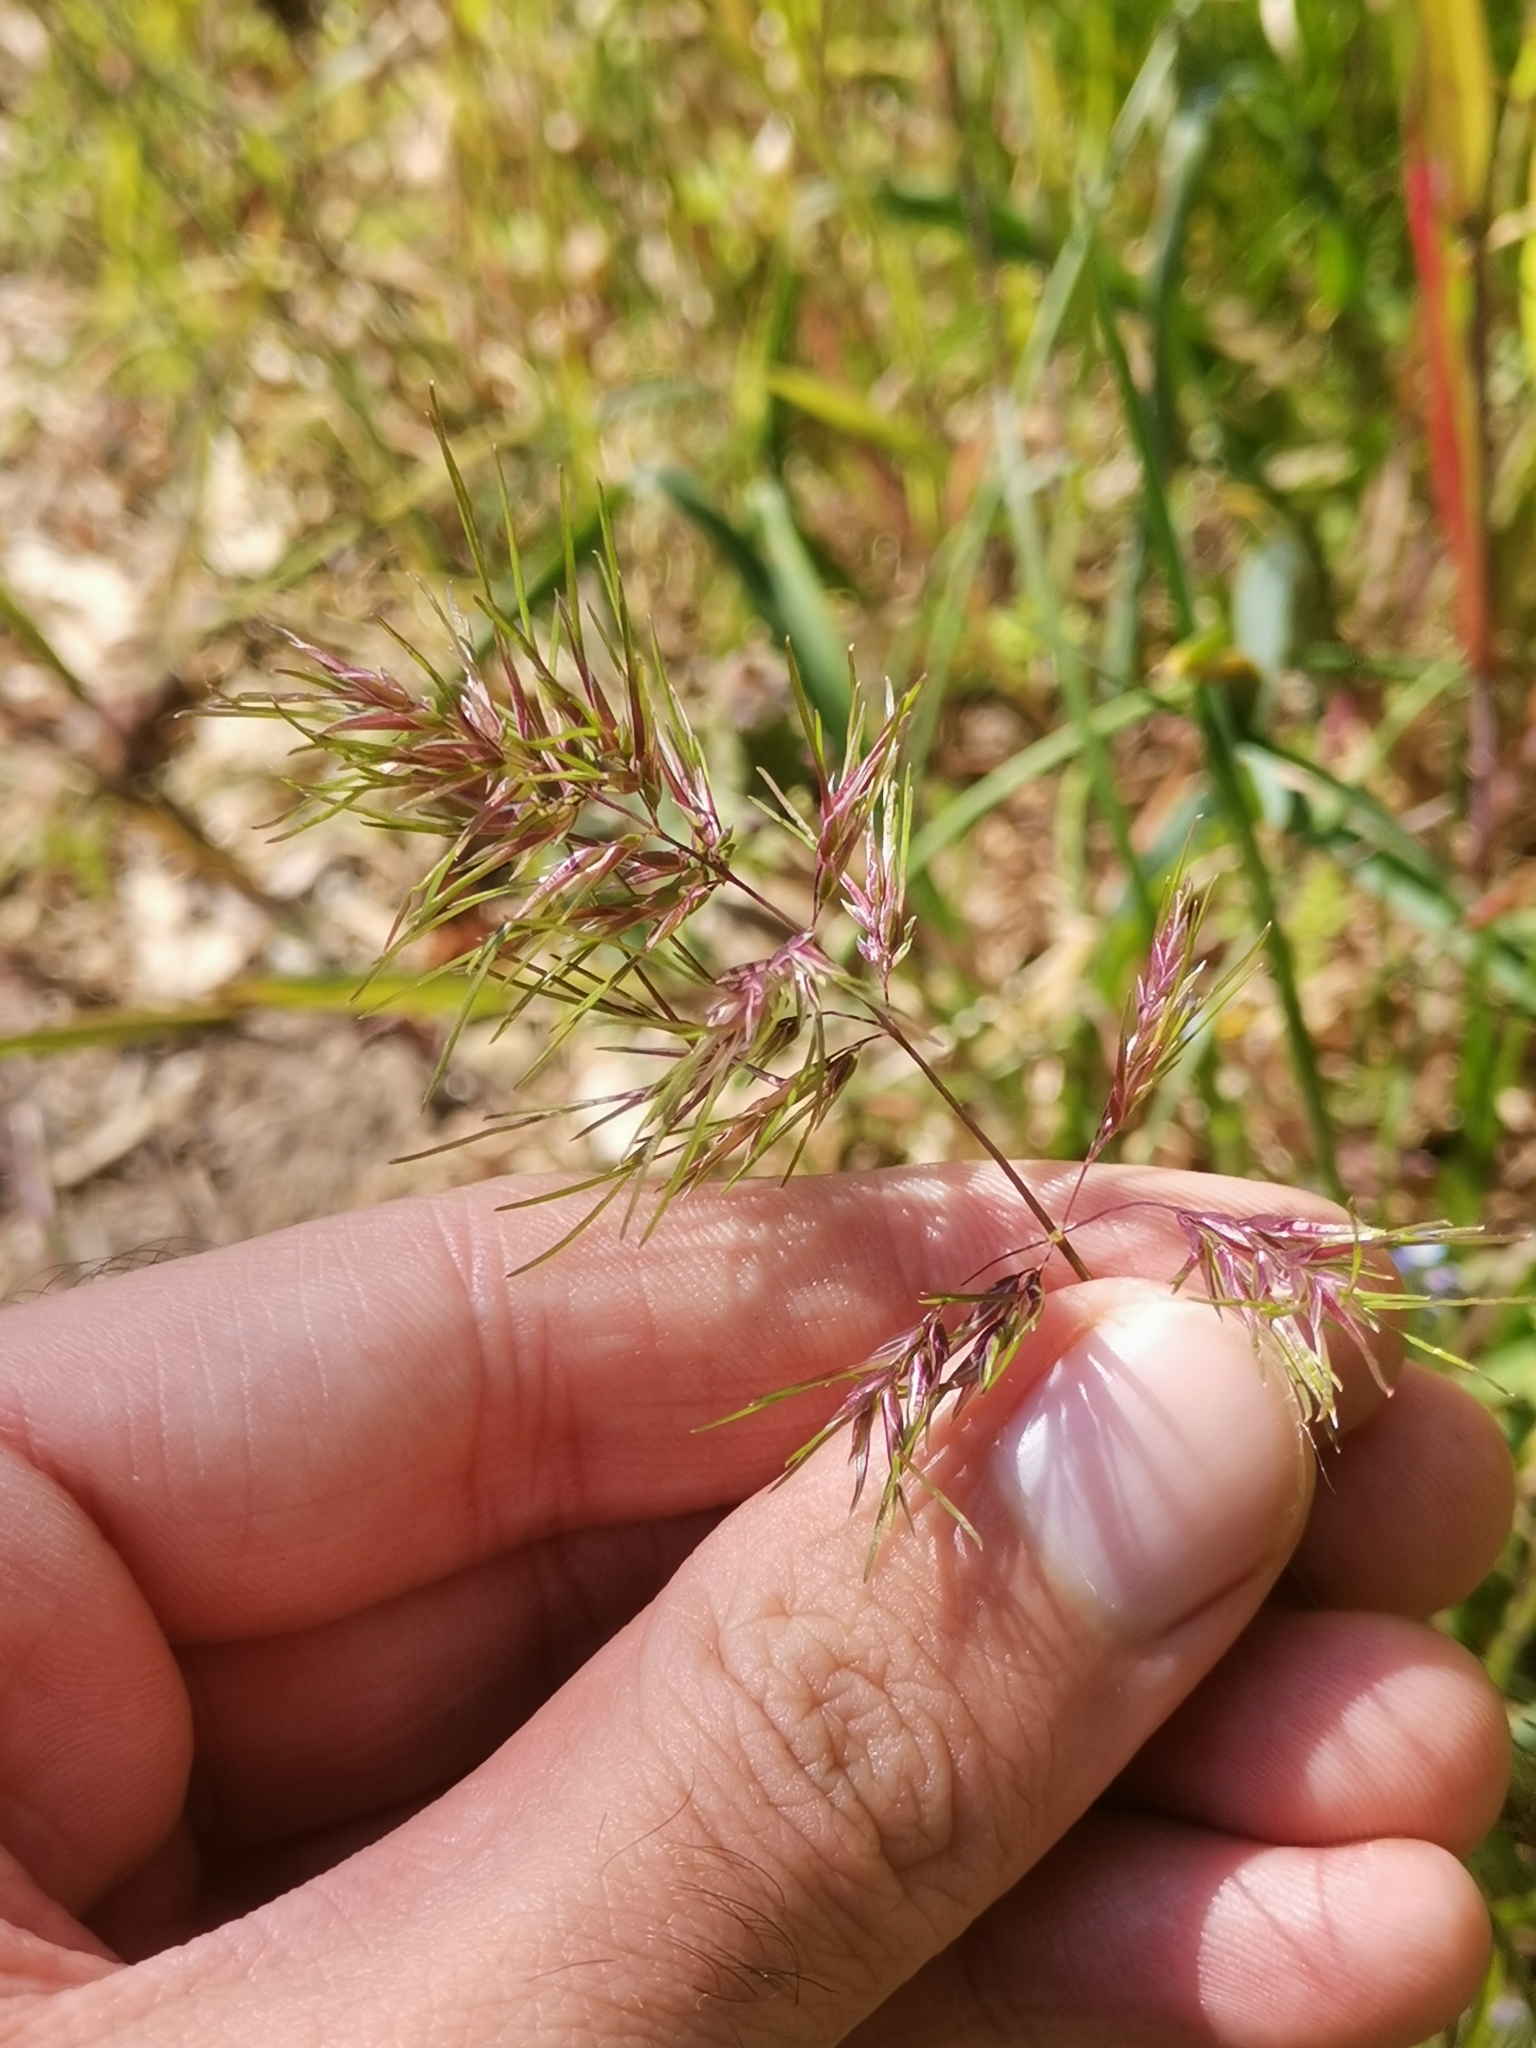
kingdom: Plantae
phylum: Tracheophyta
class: Liliopsida
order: Poales
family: Poaceae
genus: Poa
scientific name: Poa bulbosa
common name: Bulbous bluegrass
